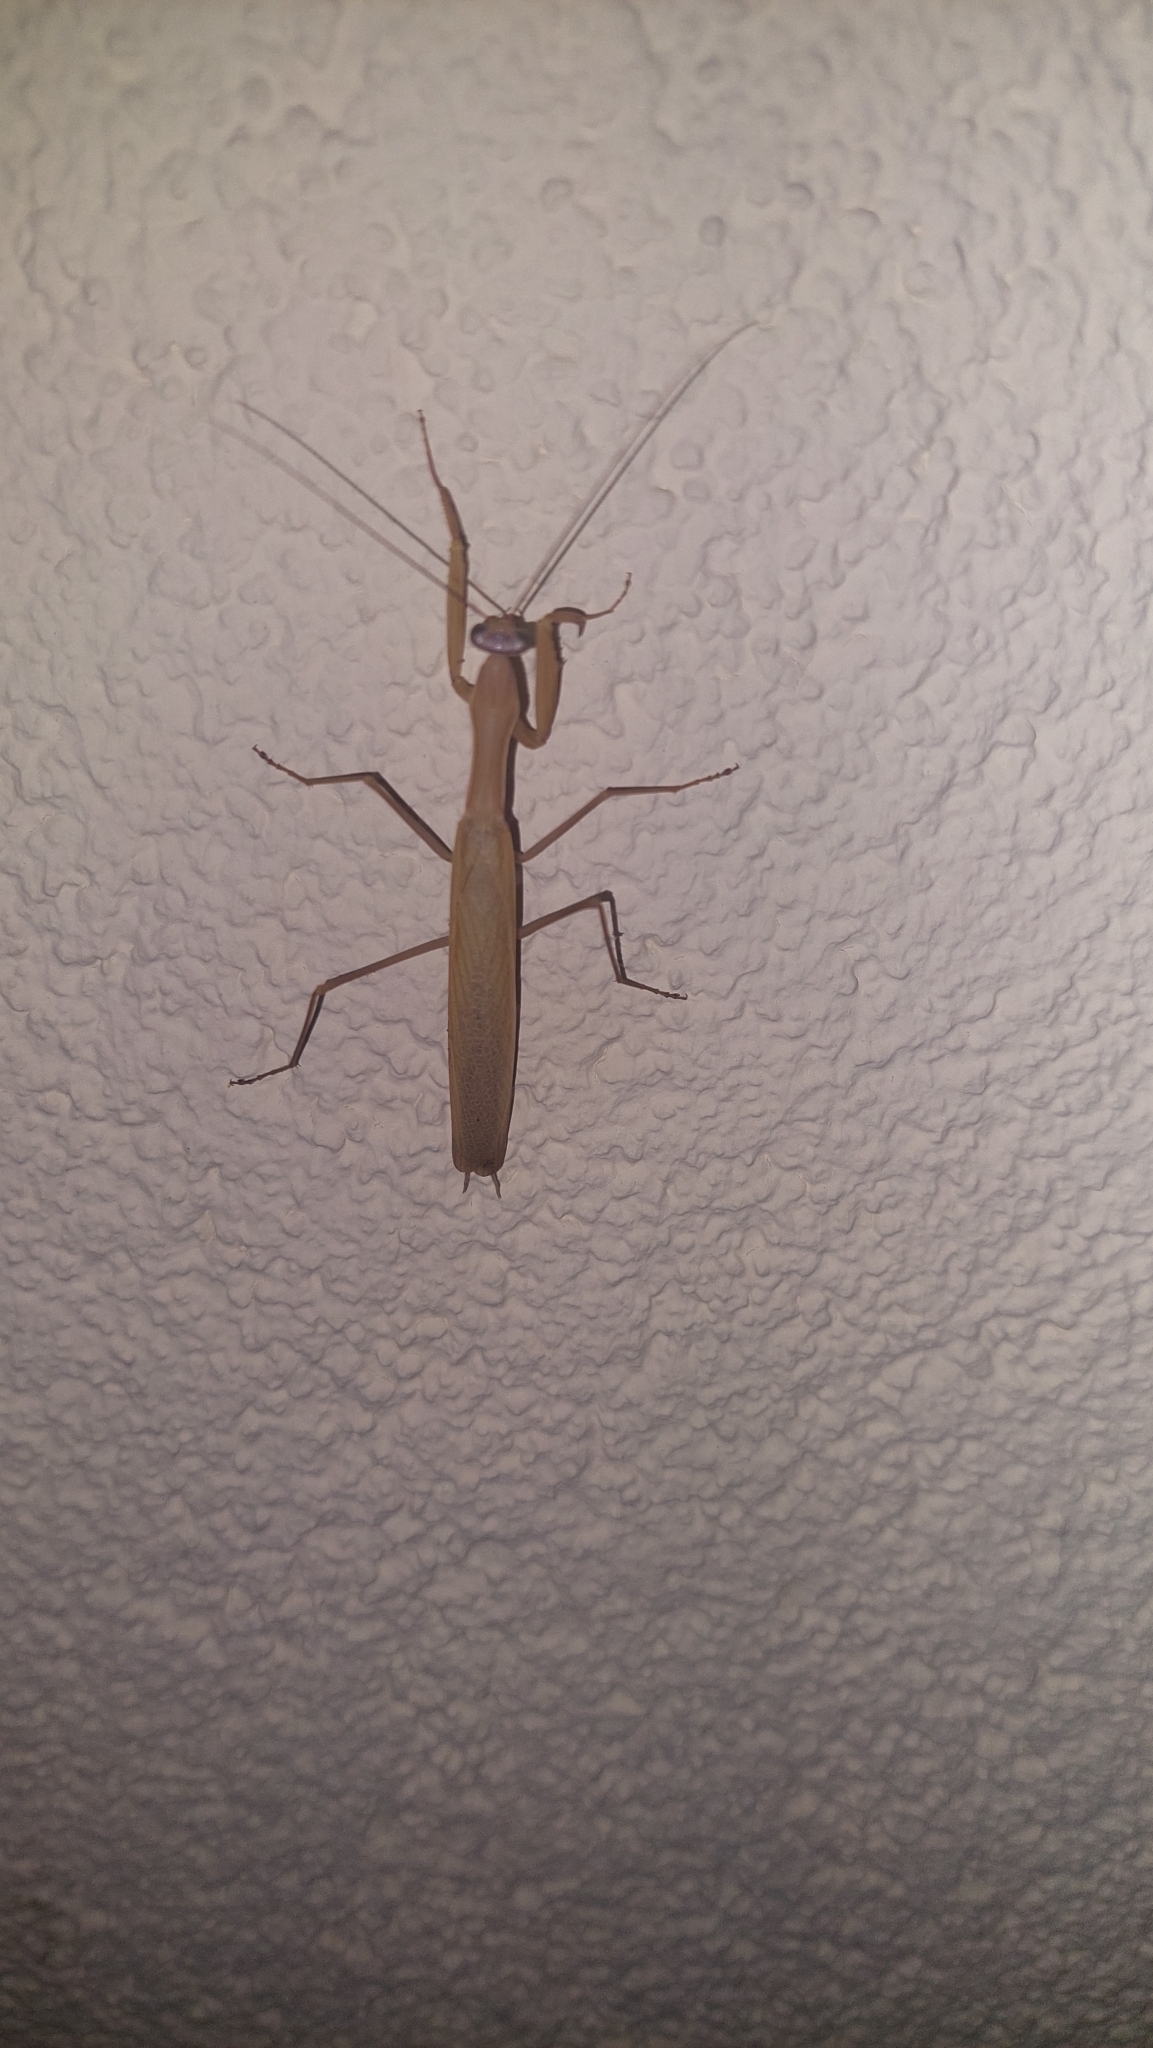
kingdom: Animalia
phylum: Arthropoda
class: Insecta
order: Mantodea
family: Mantidae
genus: Mantis
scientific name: Mantis religiosa
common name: Praying mantis
